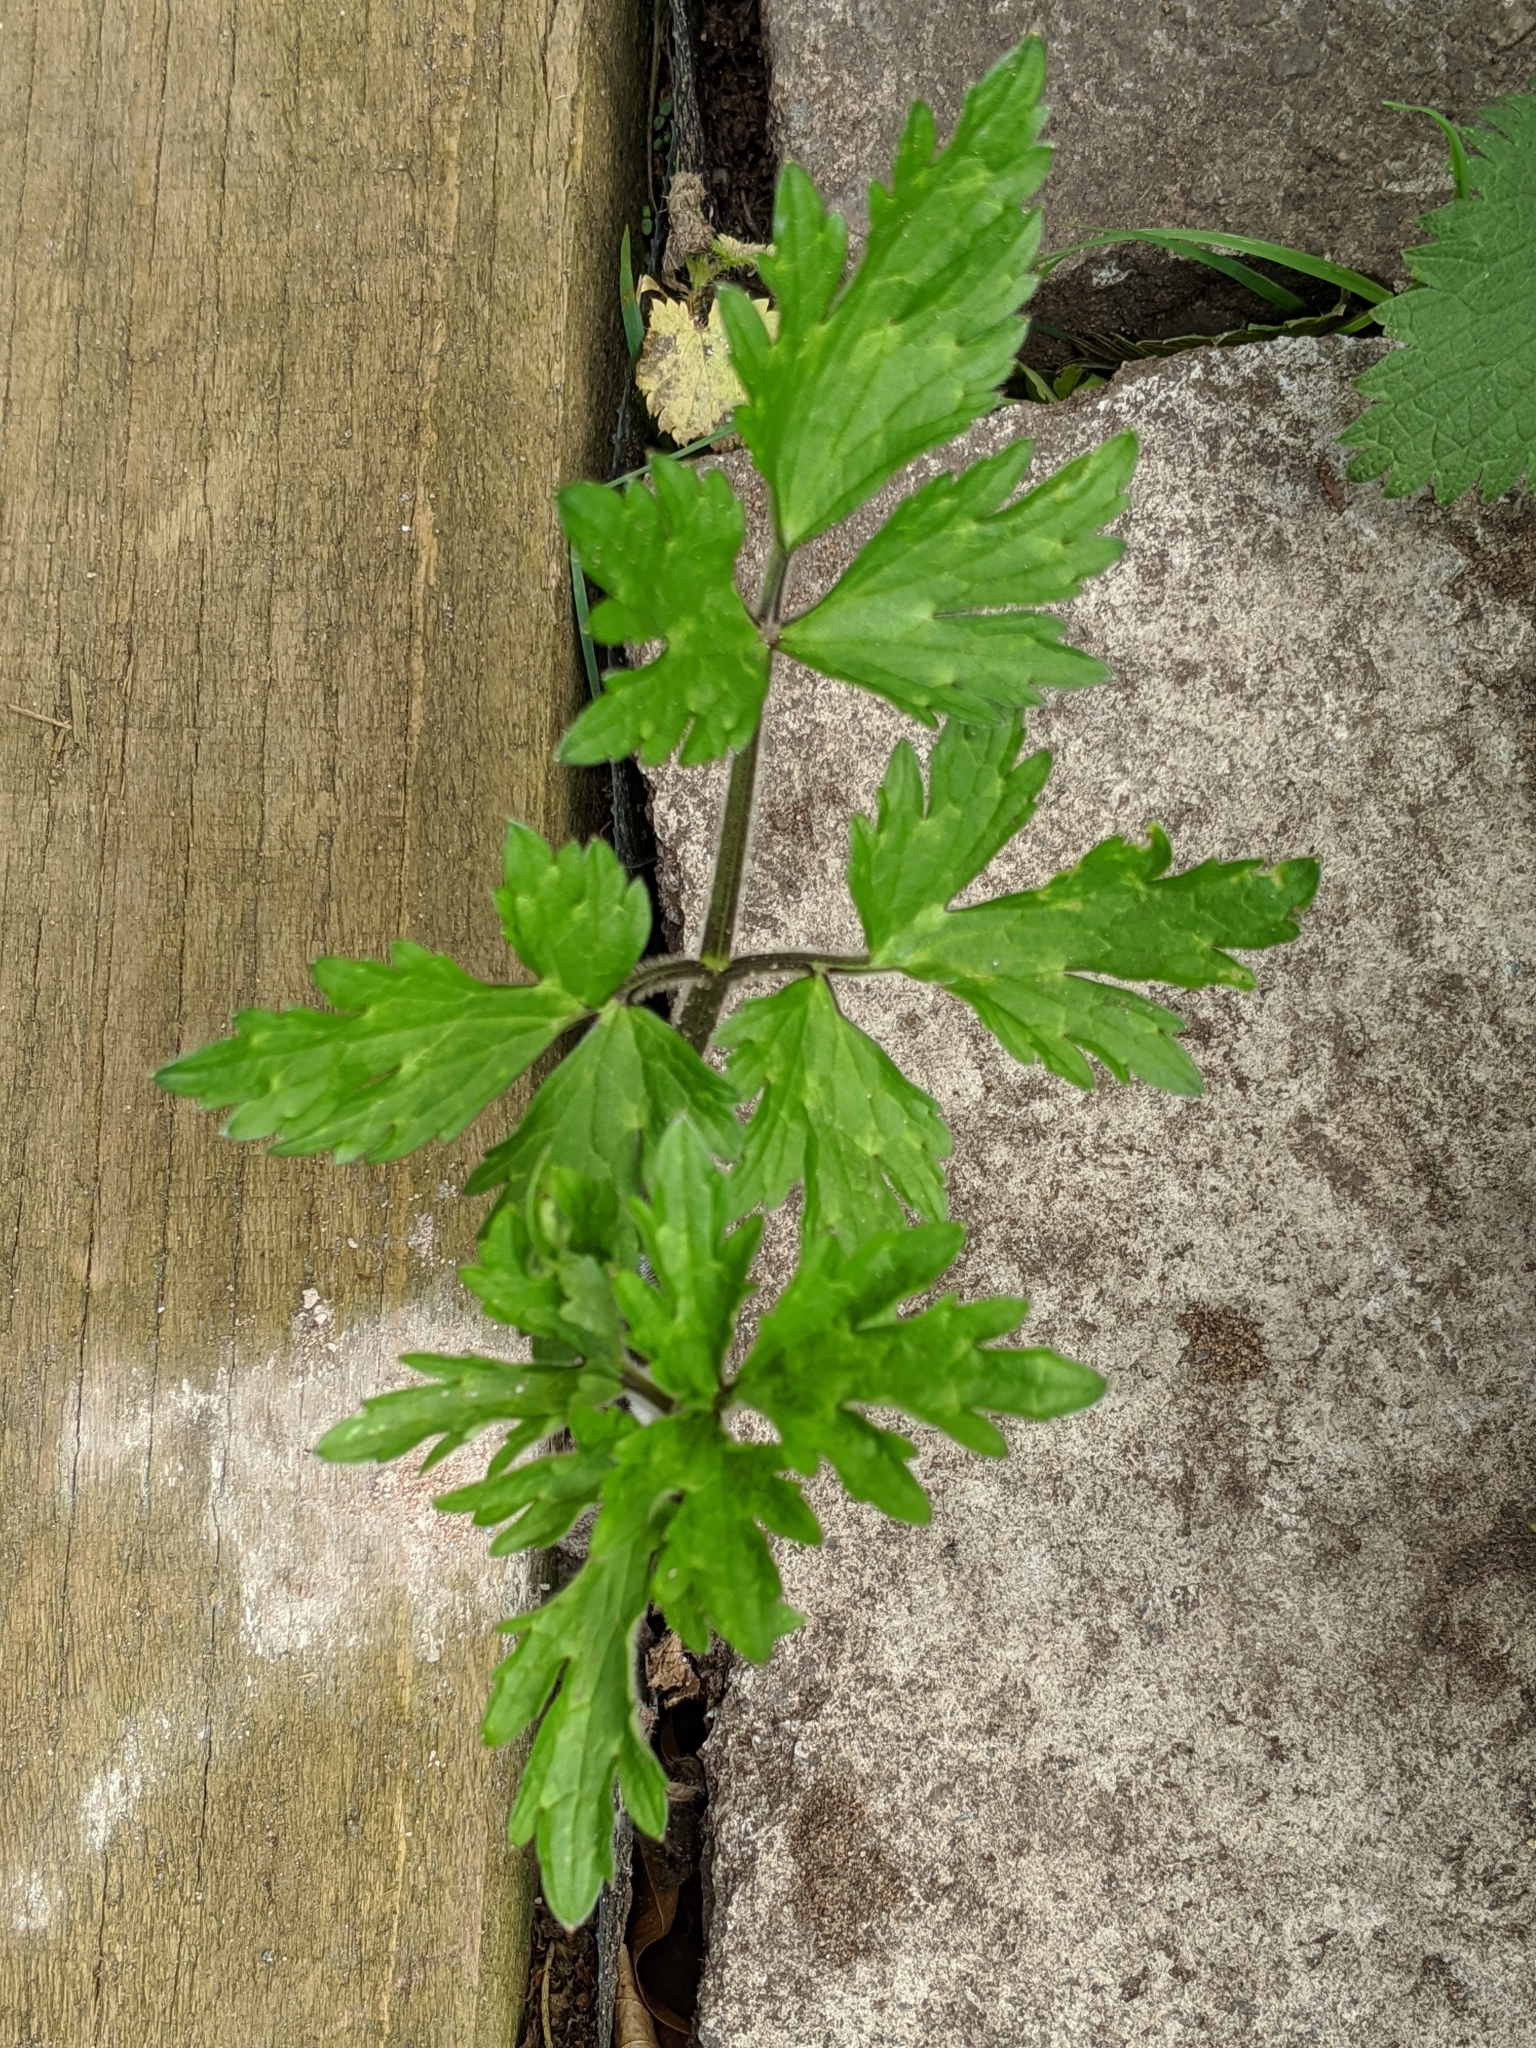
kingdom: Plantae
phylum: Tracheophyta
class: Magnoliopsida
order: Ranunculales
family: Ranunculaceae
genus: Ranunculus
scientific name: Ranunculus repens
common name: Creeping buttercup
